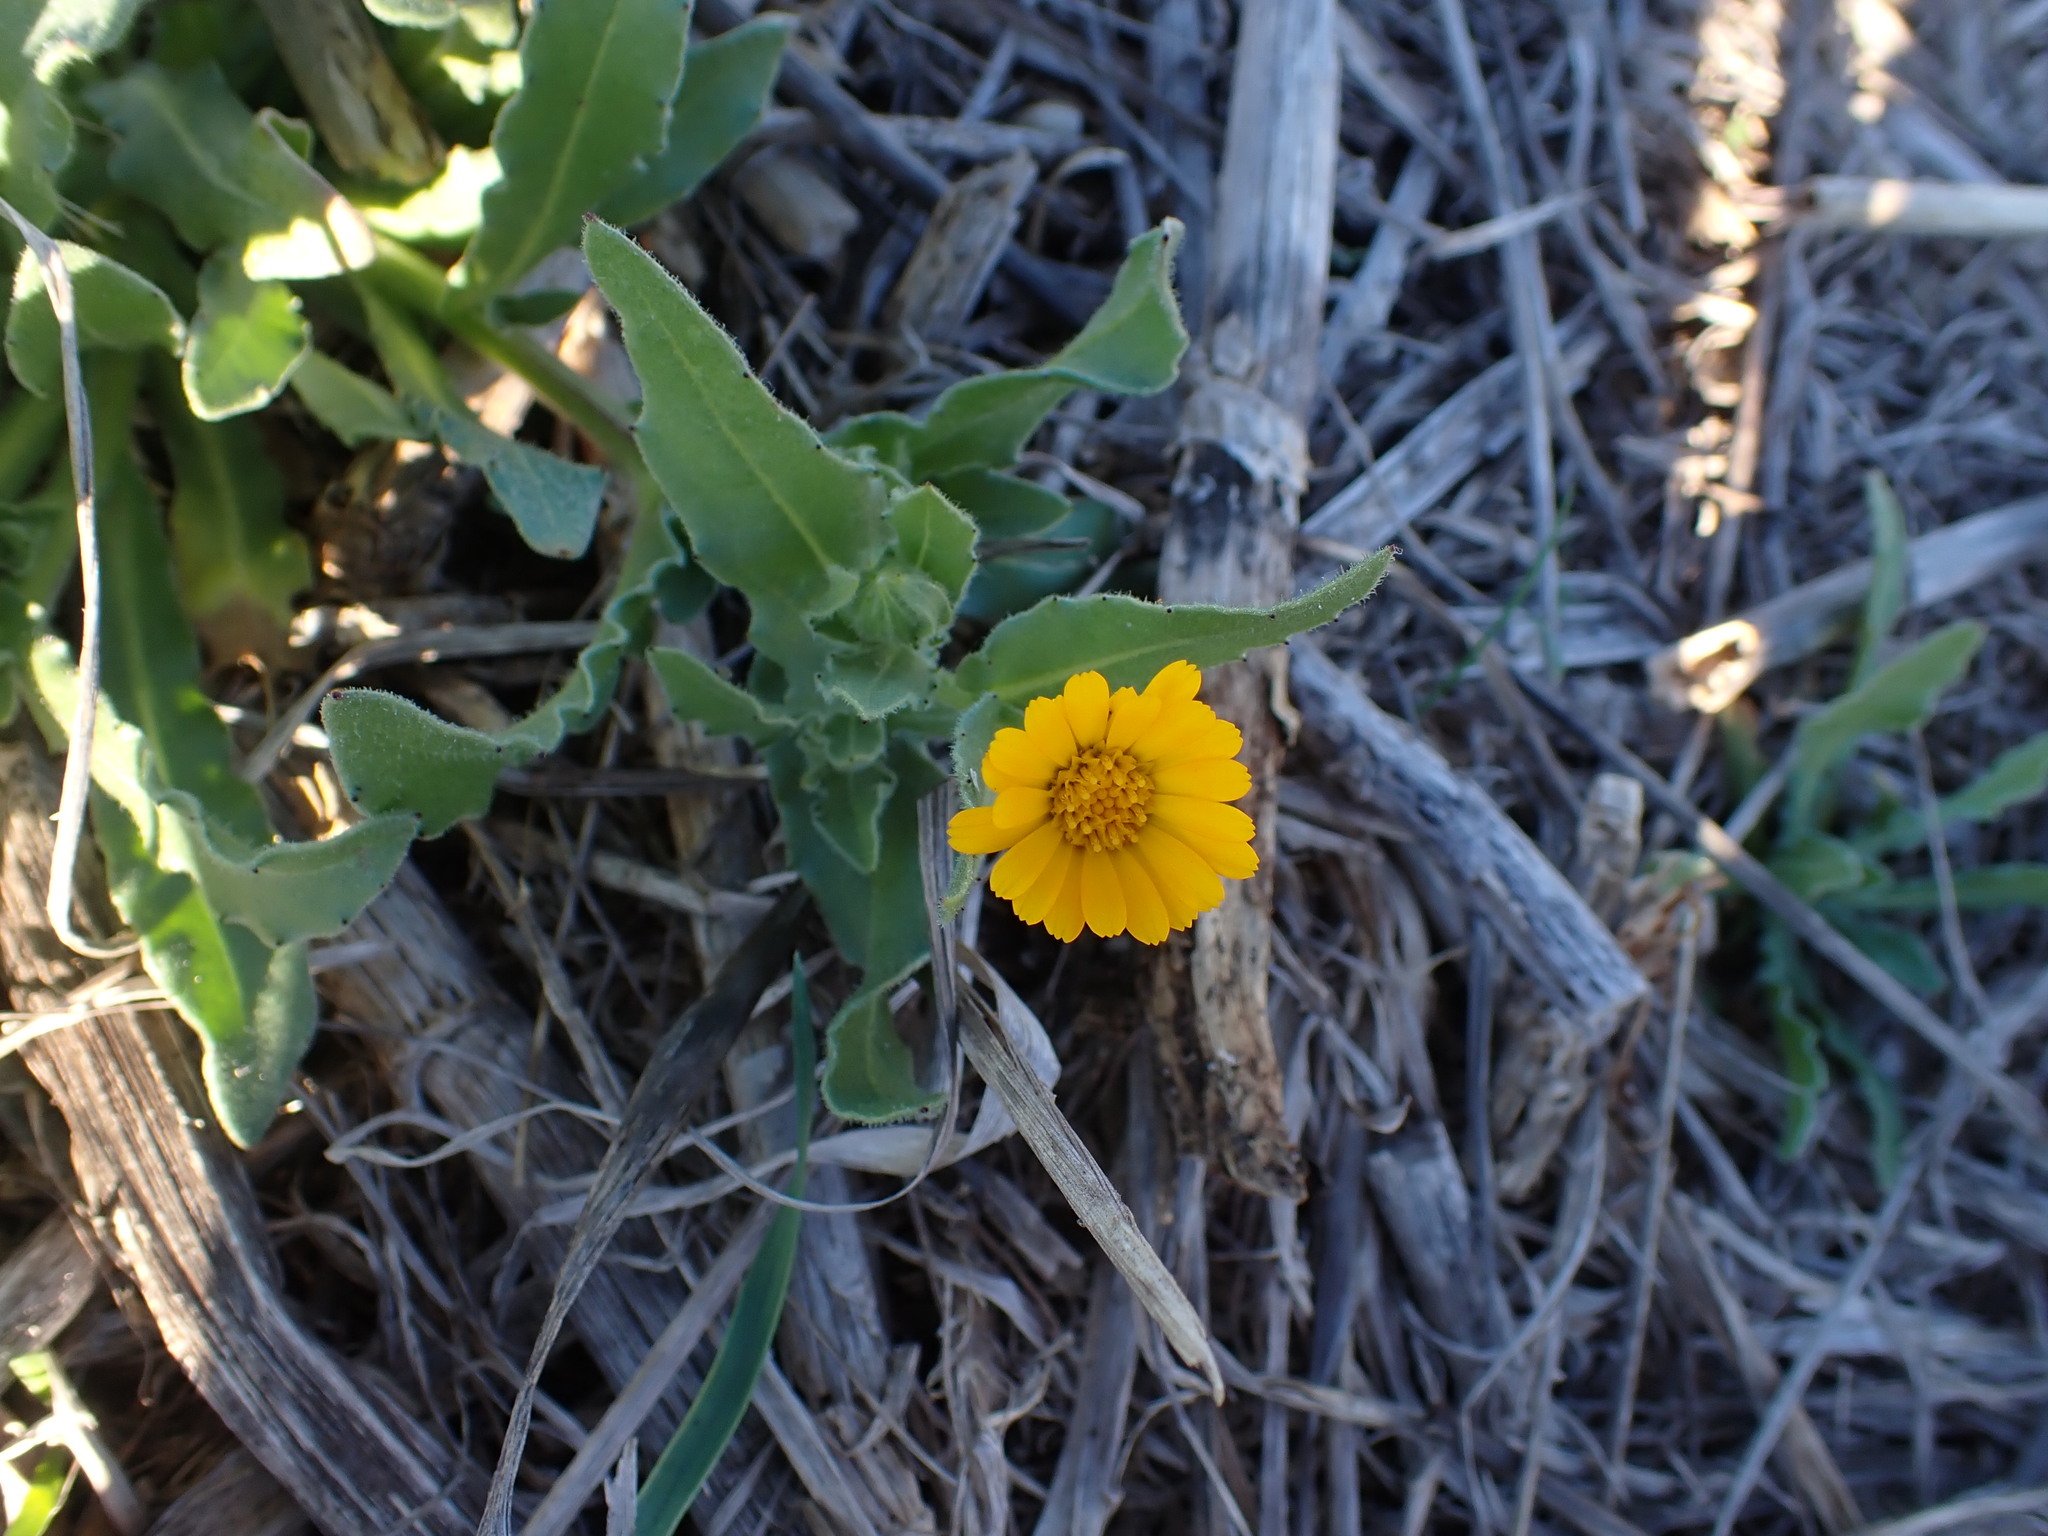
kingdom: Plantae
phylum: Tracheophyta
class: Magnoliopsida
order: Asterales
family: Asteraceae
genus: Calendula
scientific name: Calendula arvensis
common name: Field marigold
